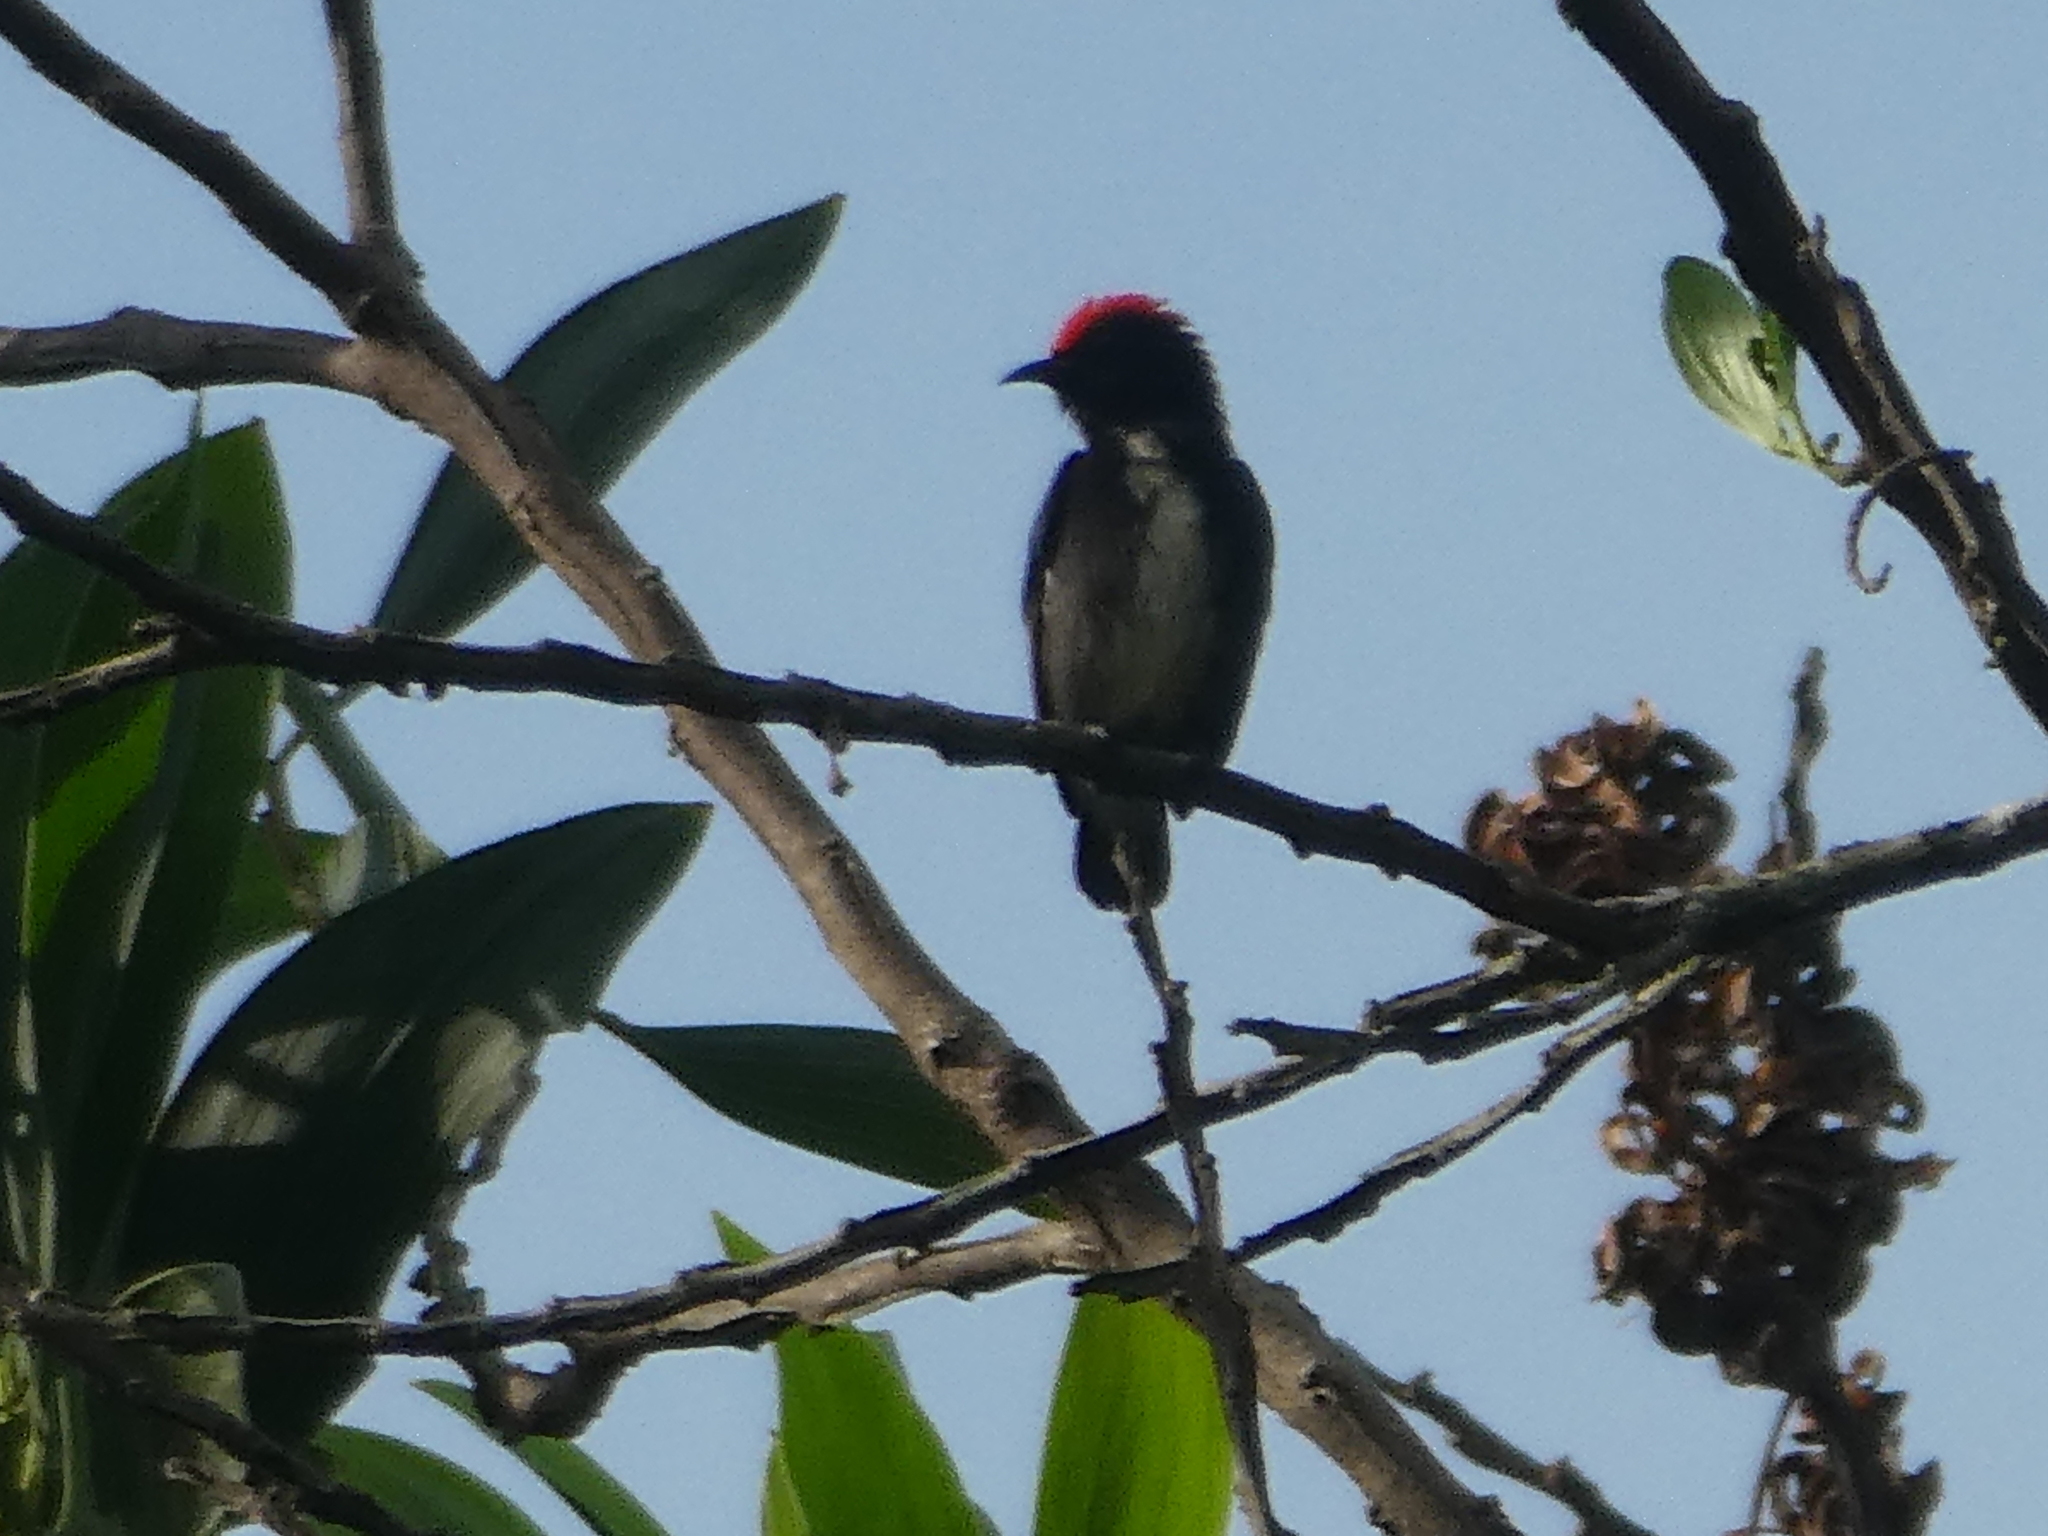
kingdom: Animalia
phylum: Chordata
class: Aves
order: Passeriformes
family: Dicaeidae
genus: Dicaeum
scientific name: Dicaeum cruentatum
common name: Scarlet-backed flowerpecker
